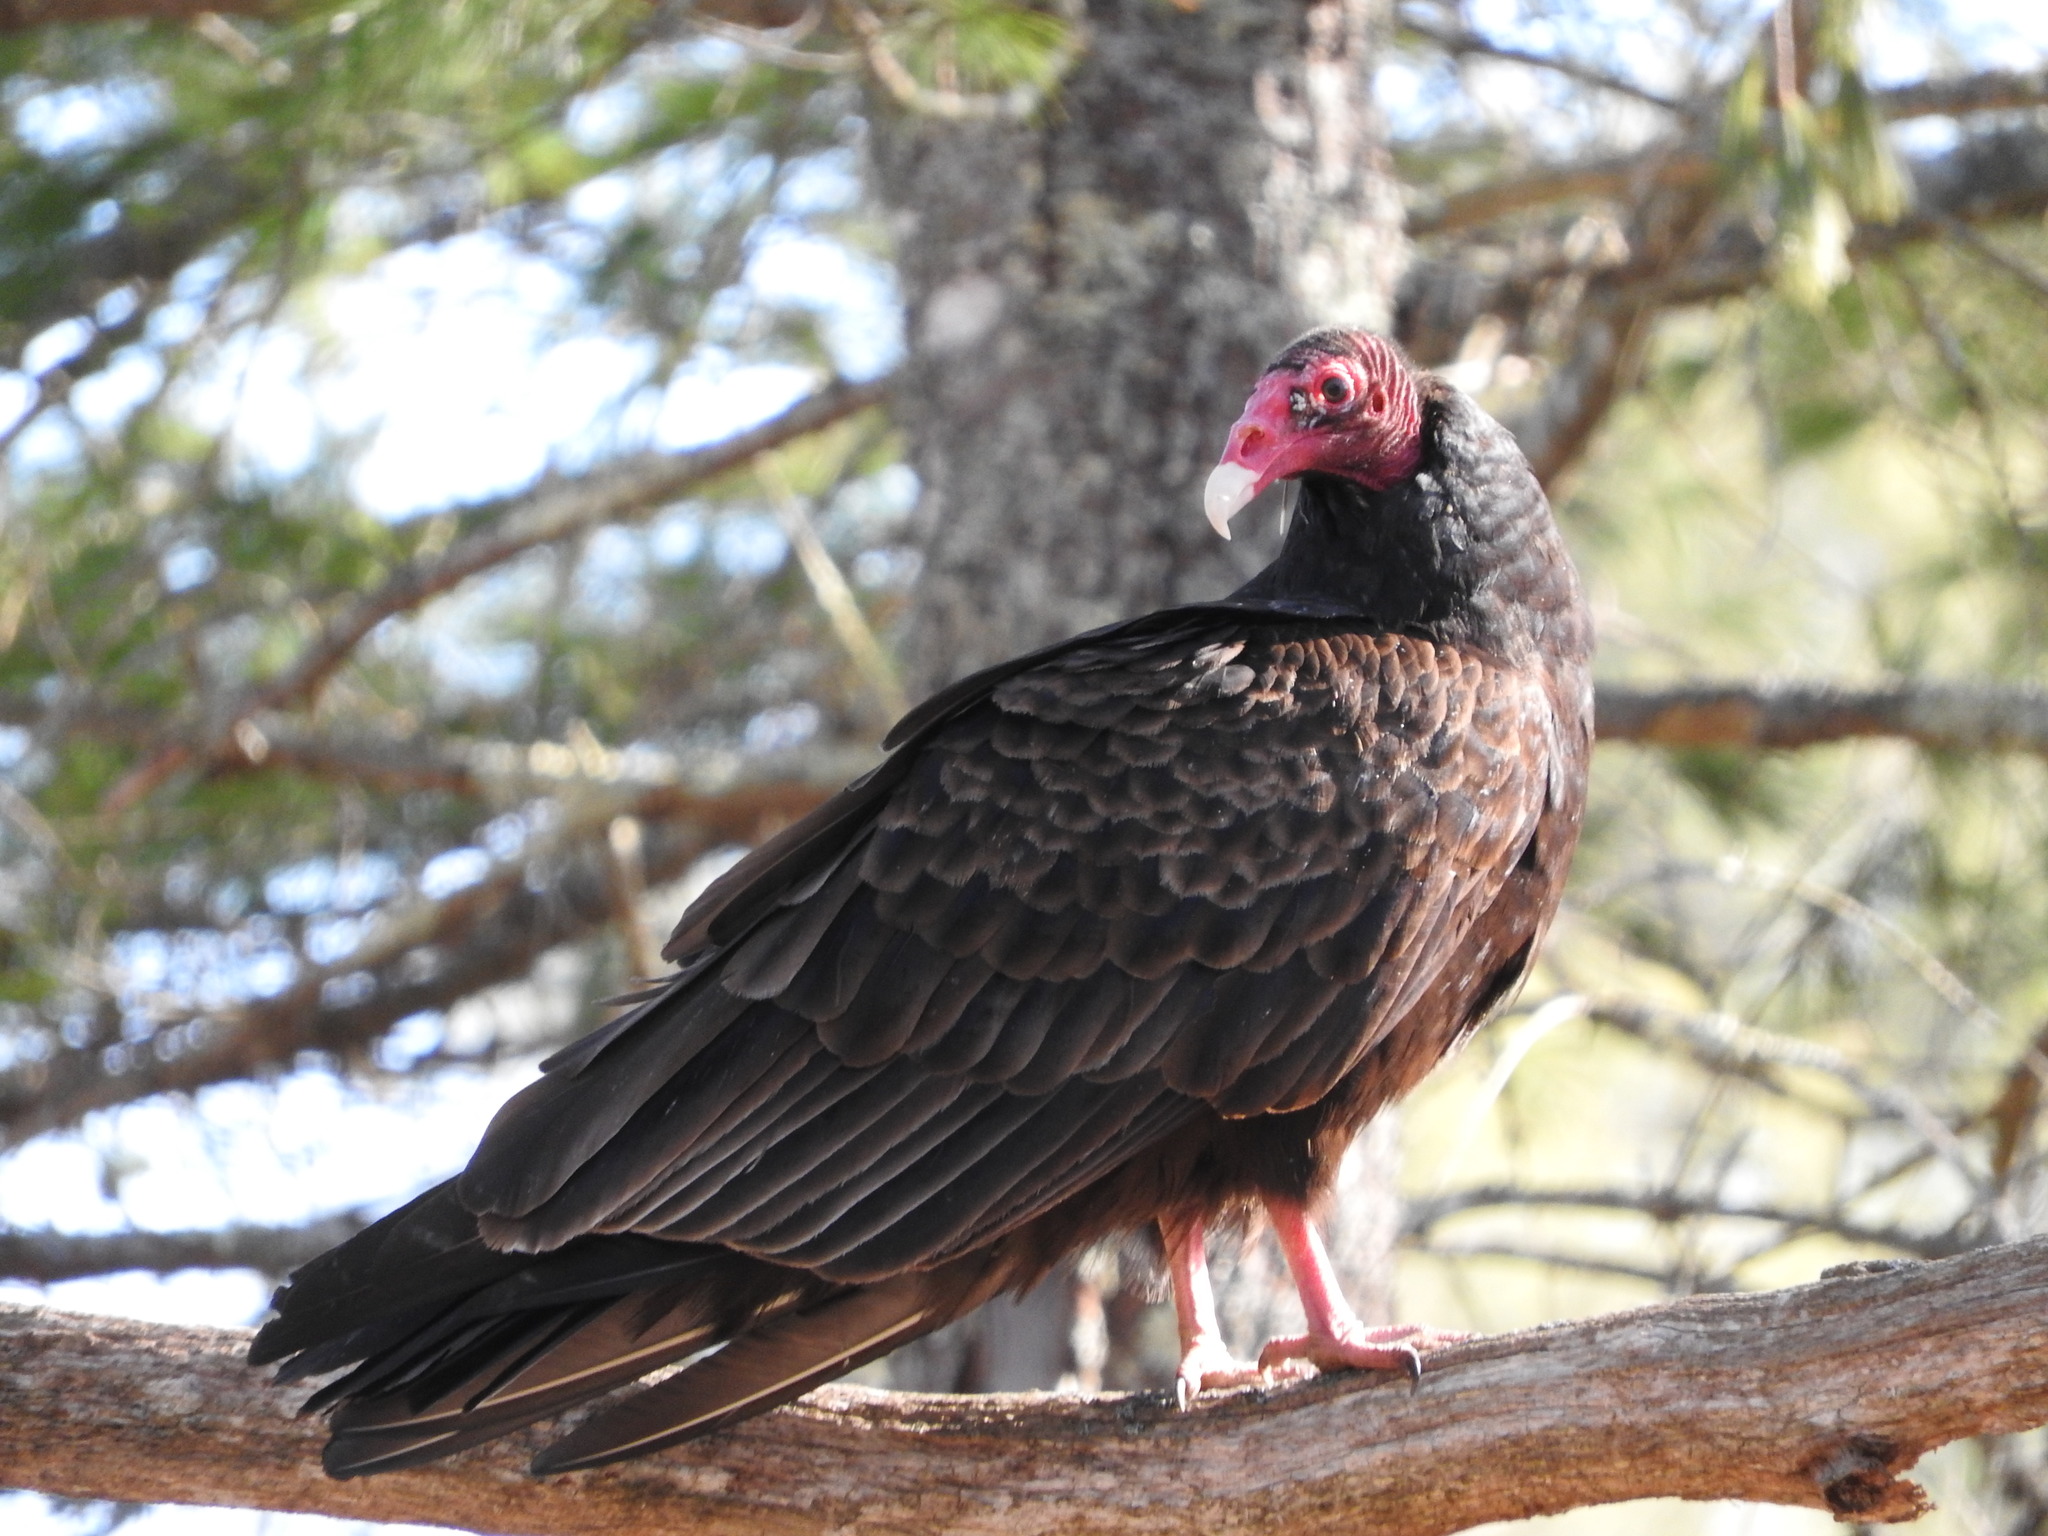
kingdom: Animalia
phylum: Chordata
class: Aves
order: Accipitriformes
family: Cathartidae
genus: Cathartes
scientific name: Cathartes aura
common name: Turkey vulture
